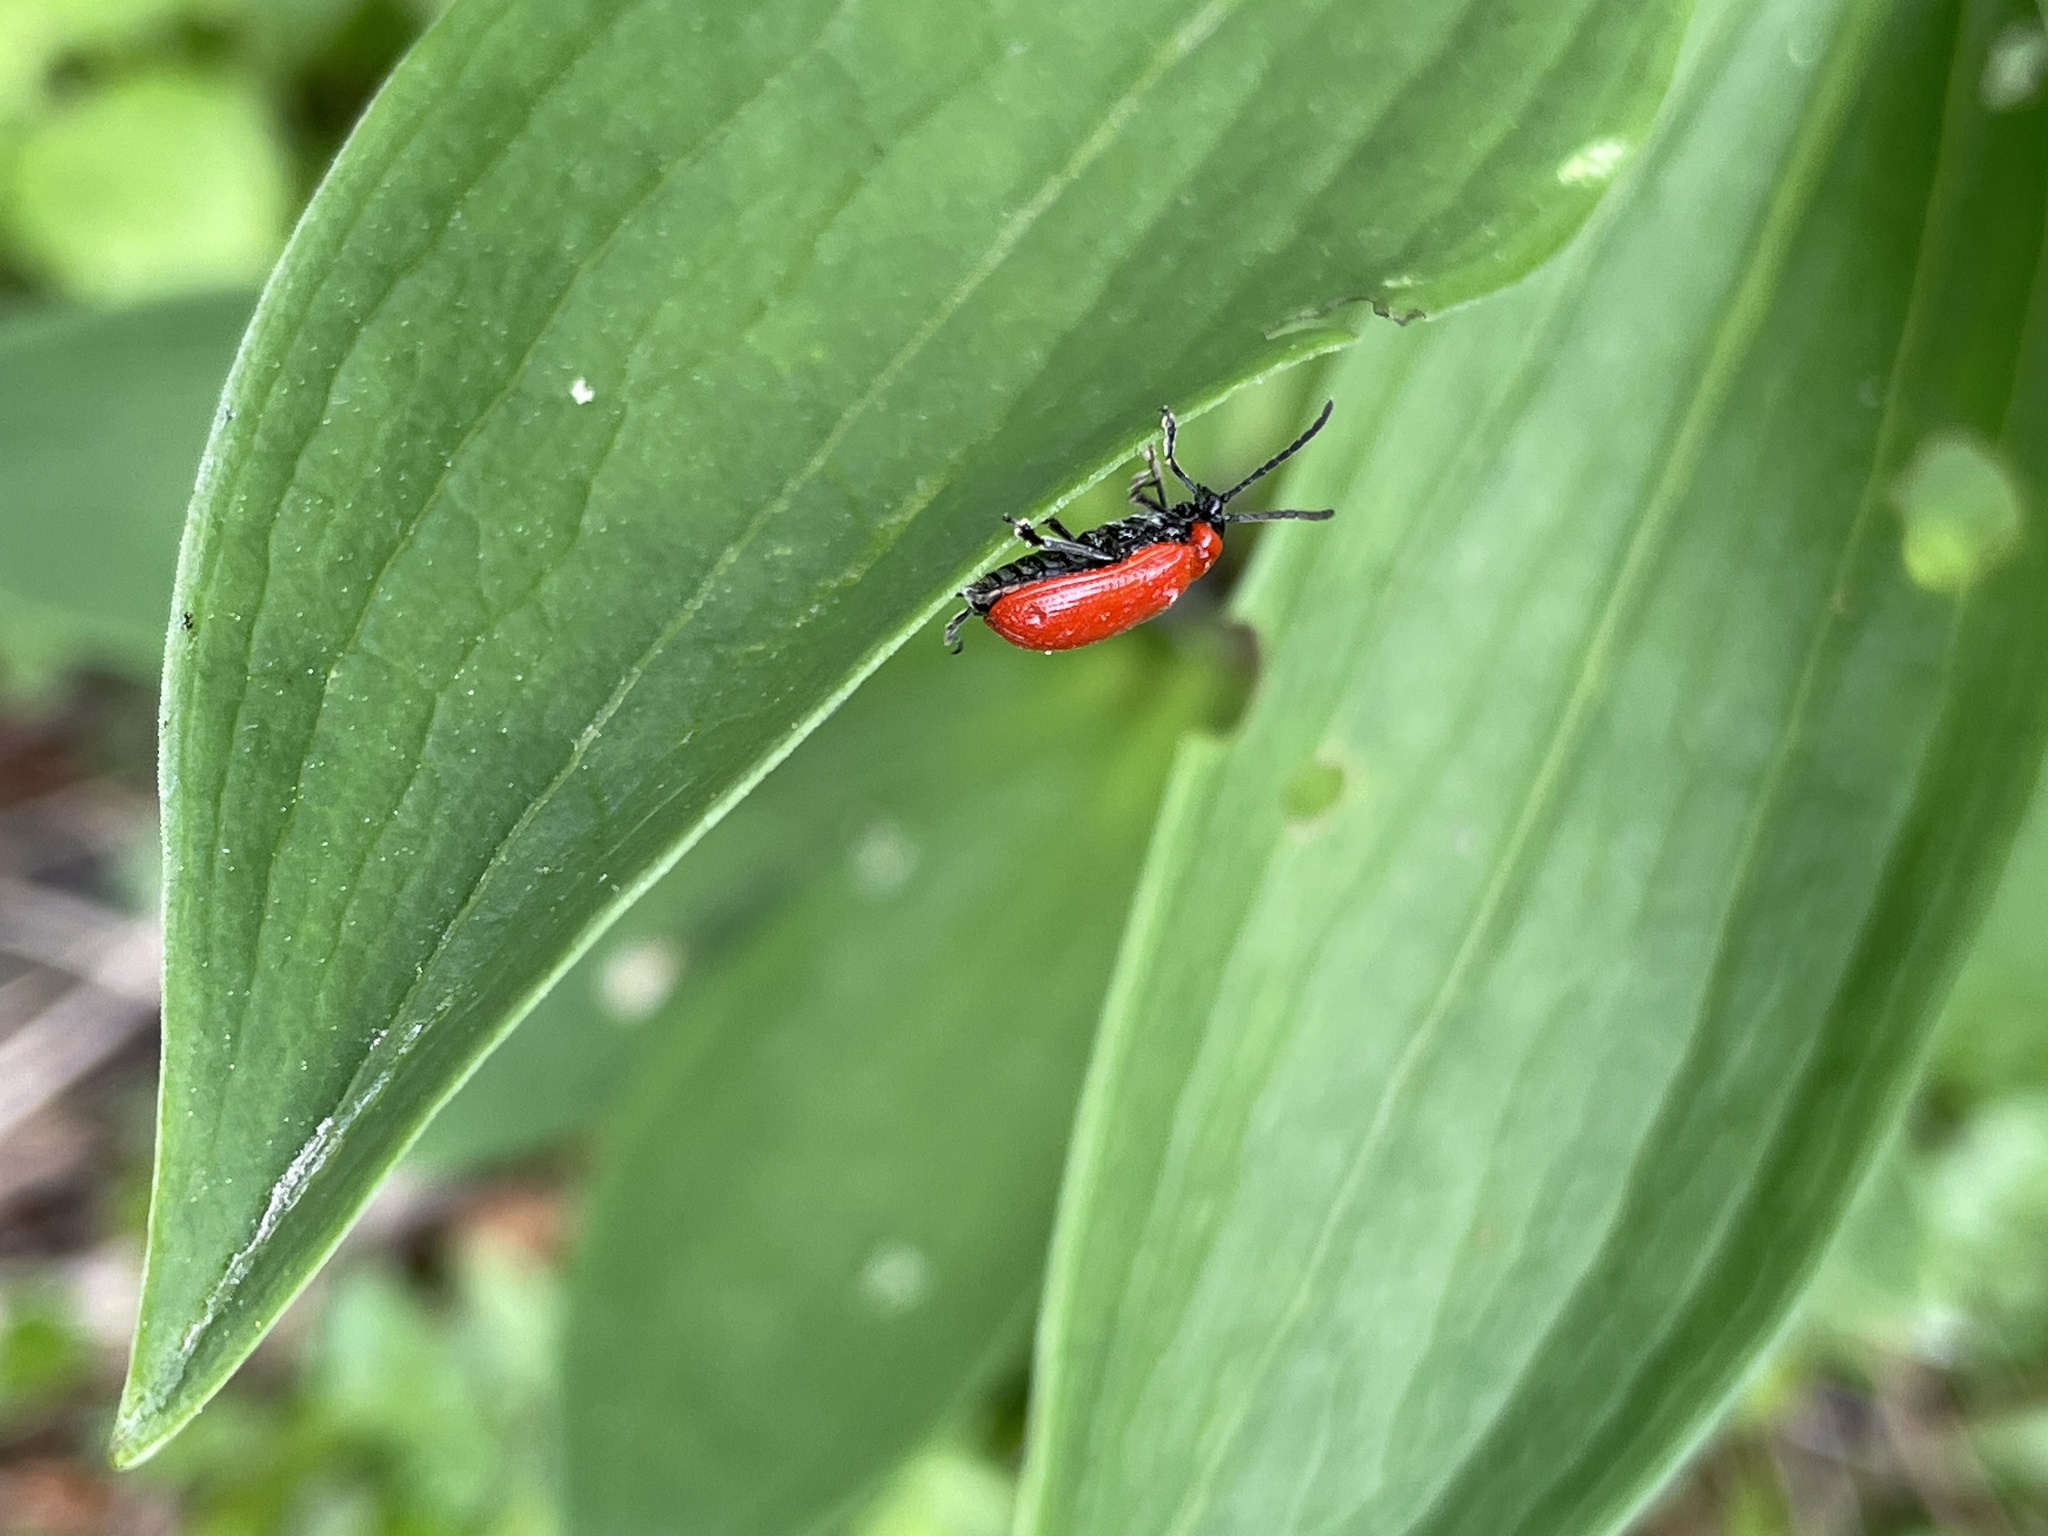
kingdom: Animalia
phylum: Arthropoda
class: Insecta
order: Coleoptera
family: Chrysomelidae
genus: Lilioceris
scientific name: Lilioceris lilii
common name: Lily beetle
